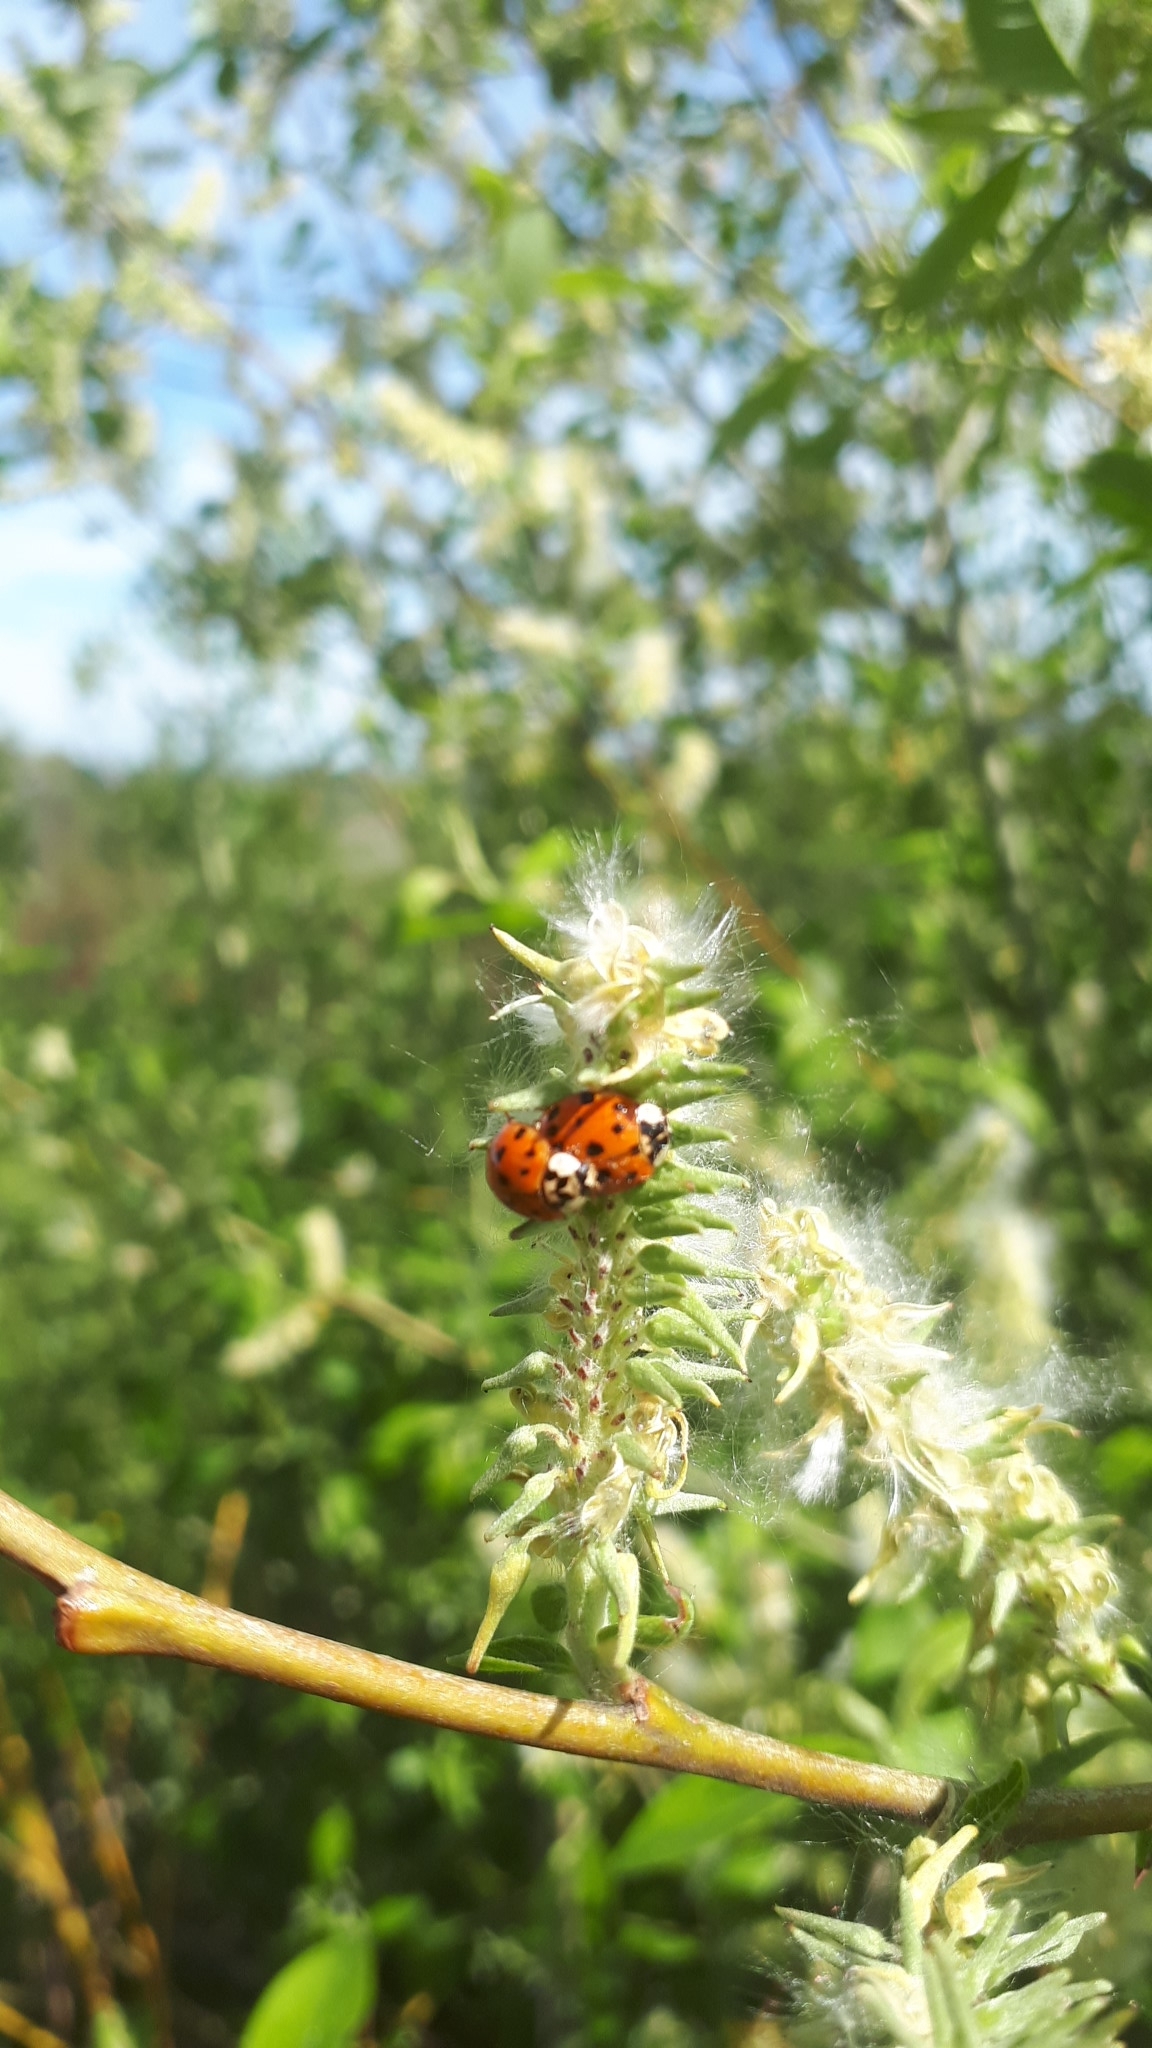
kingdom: Animalia
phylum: Arthropoda
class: Insecta
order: Coleoptera
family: Coccinellidae
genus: Harmonia
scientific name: Harmonia axyridis
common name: Harlequin ladybird
